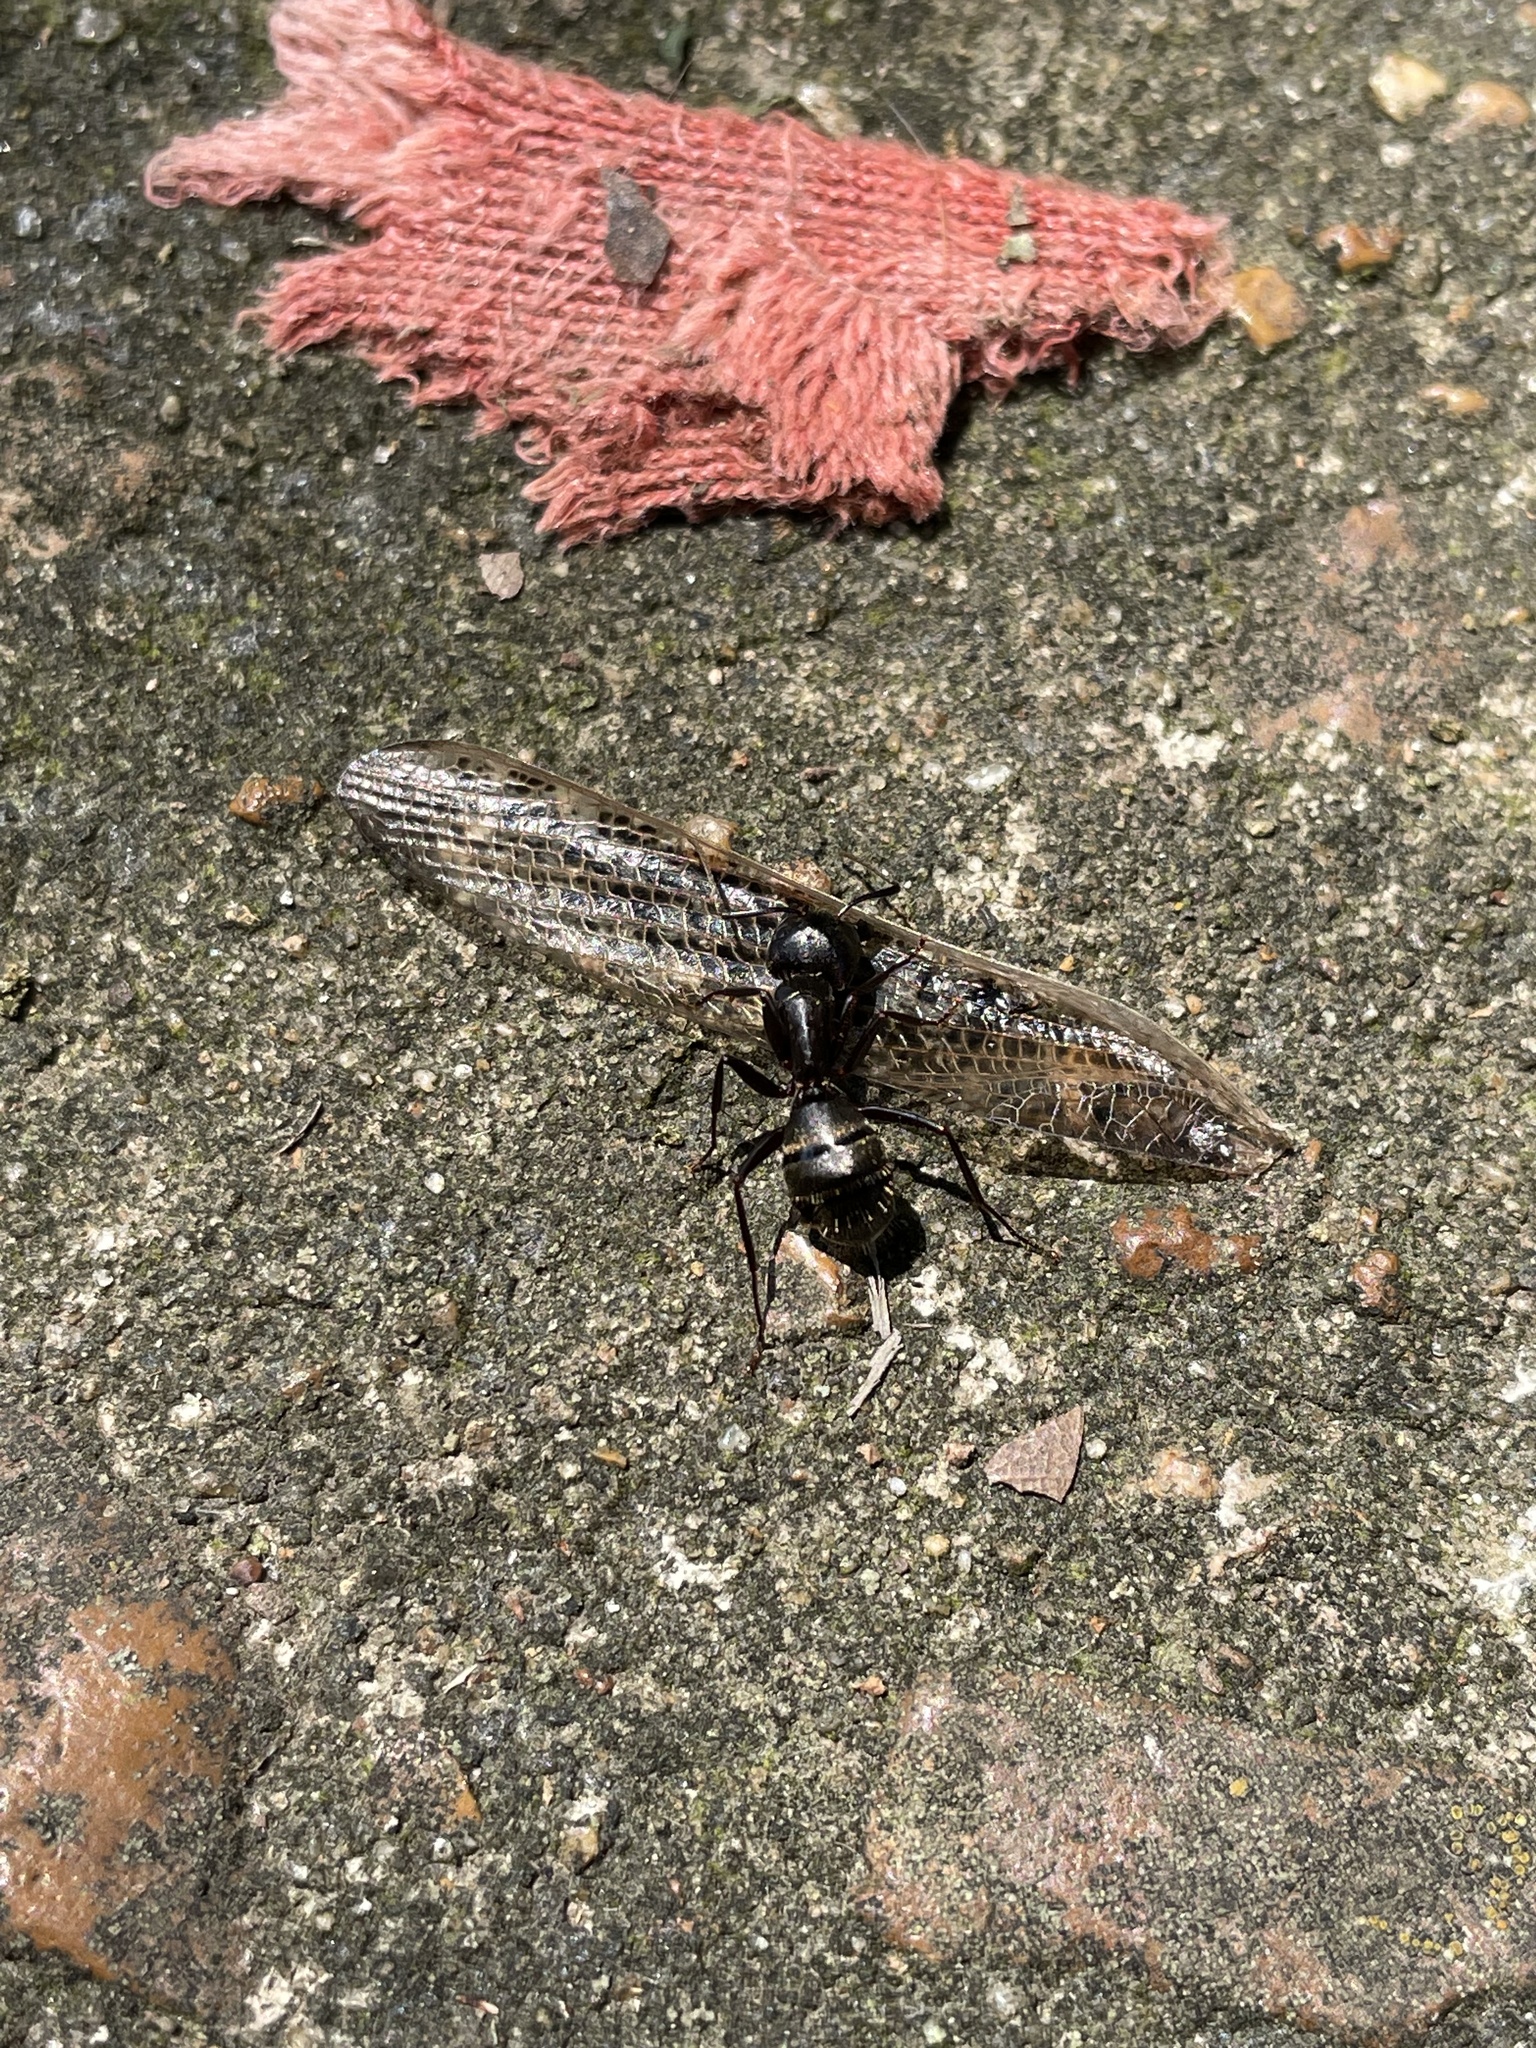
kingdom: Animalia
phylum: Arthropoda
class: Insecta
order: Hymenoptera
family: Formicidae
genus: Camponotus
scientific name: Camponotus pennsylvanicus
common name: Black carpenter ant
